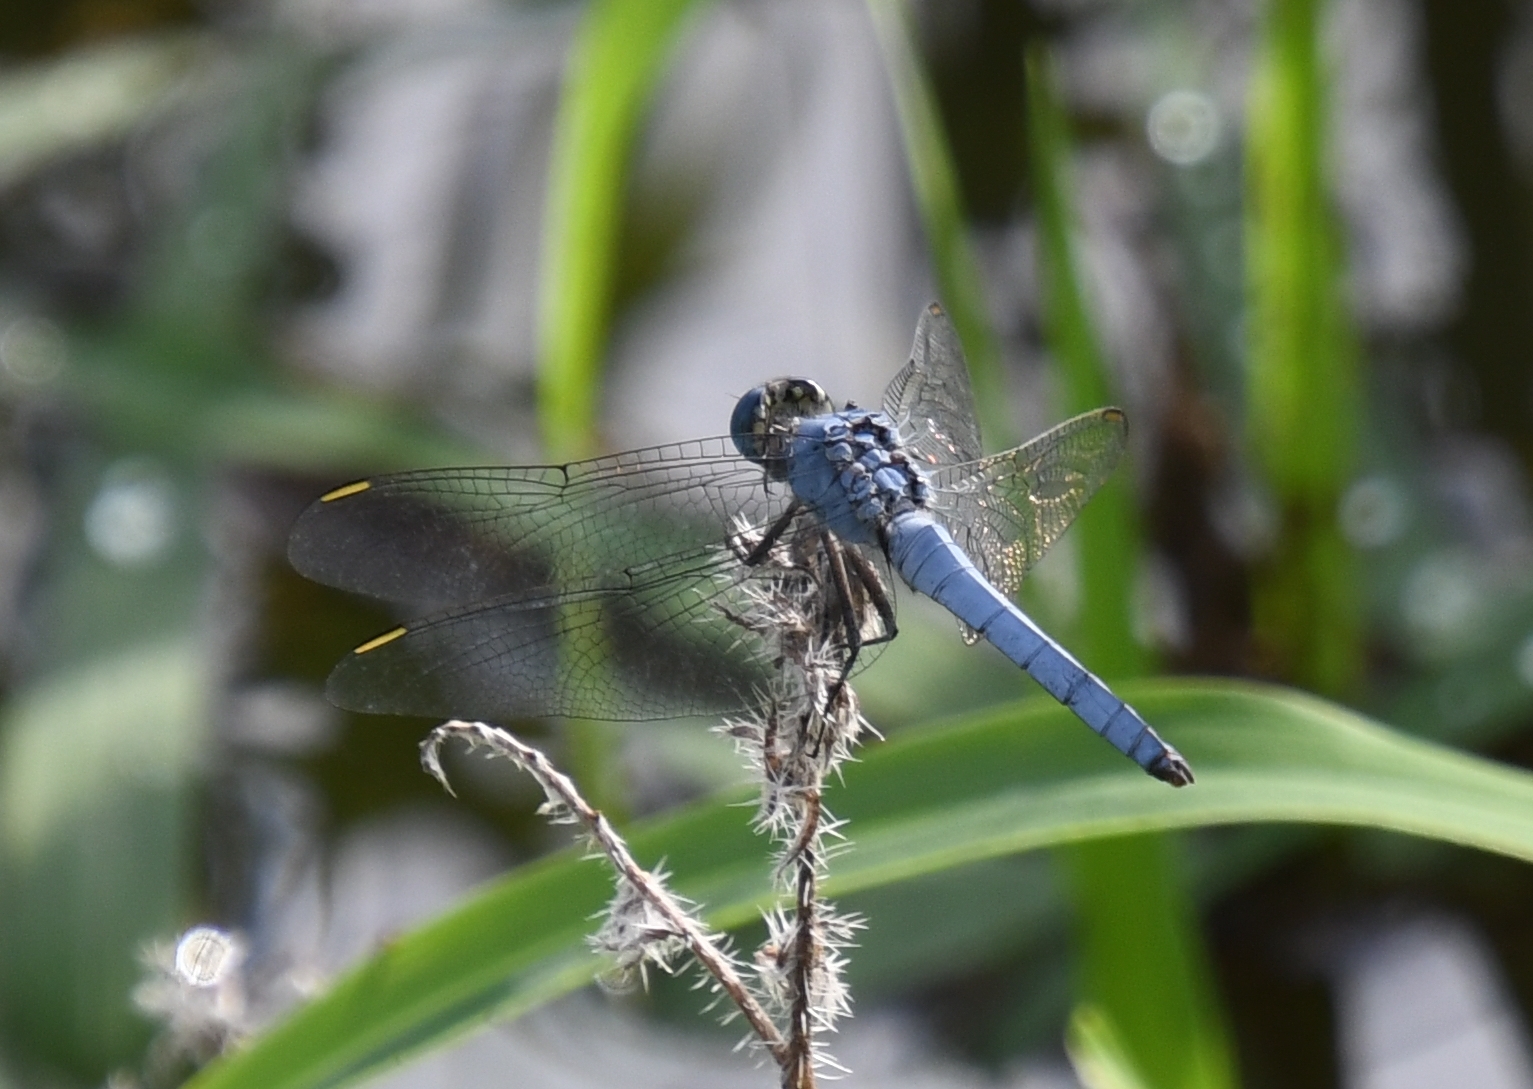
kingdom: Animalia
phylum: Arthropoda
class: Insecta
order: Odonata
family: Libellulidae
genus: Erythemis
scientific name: Erythemis collocata
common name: Western pondhawk
